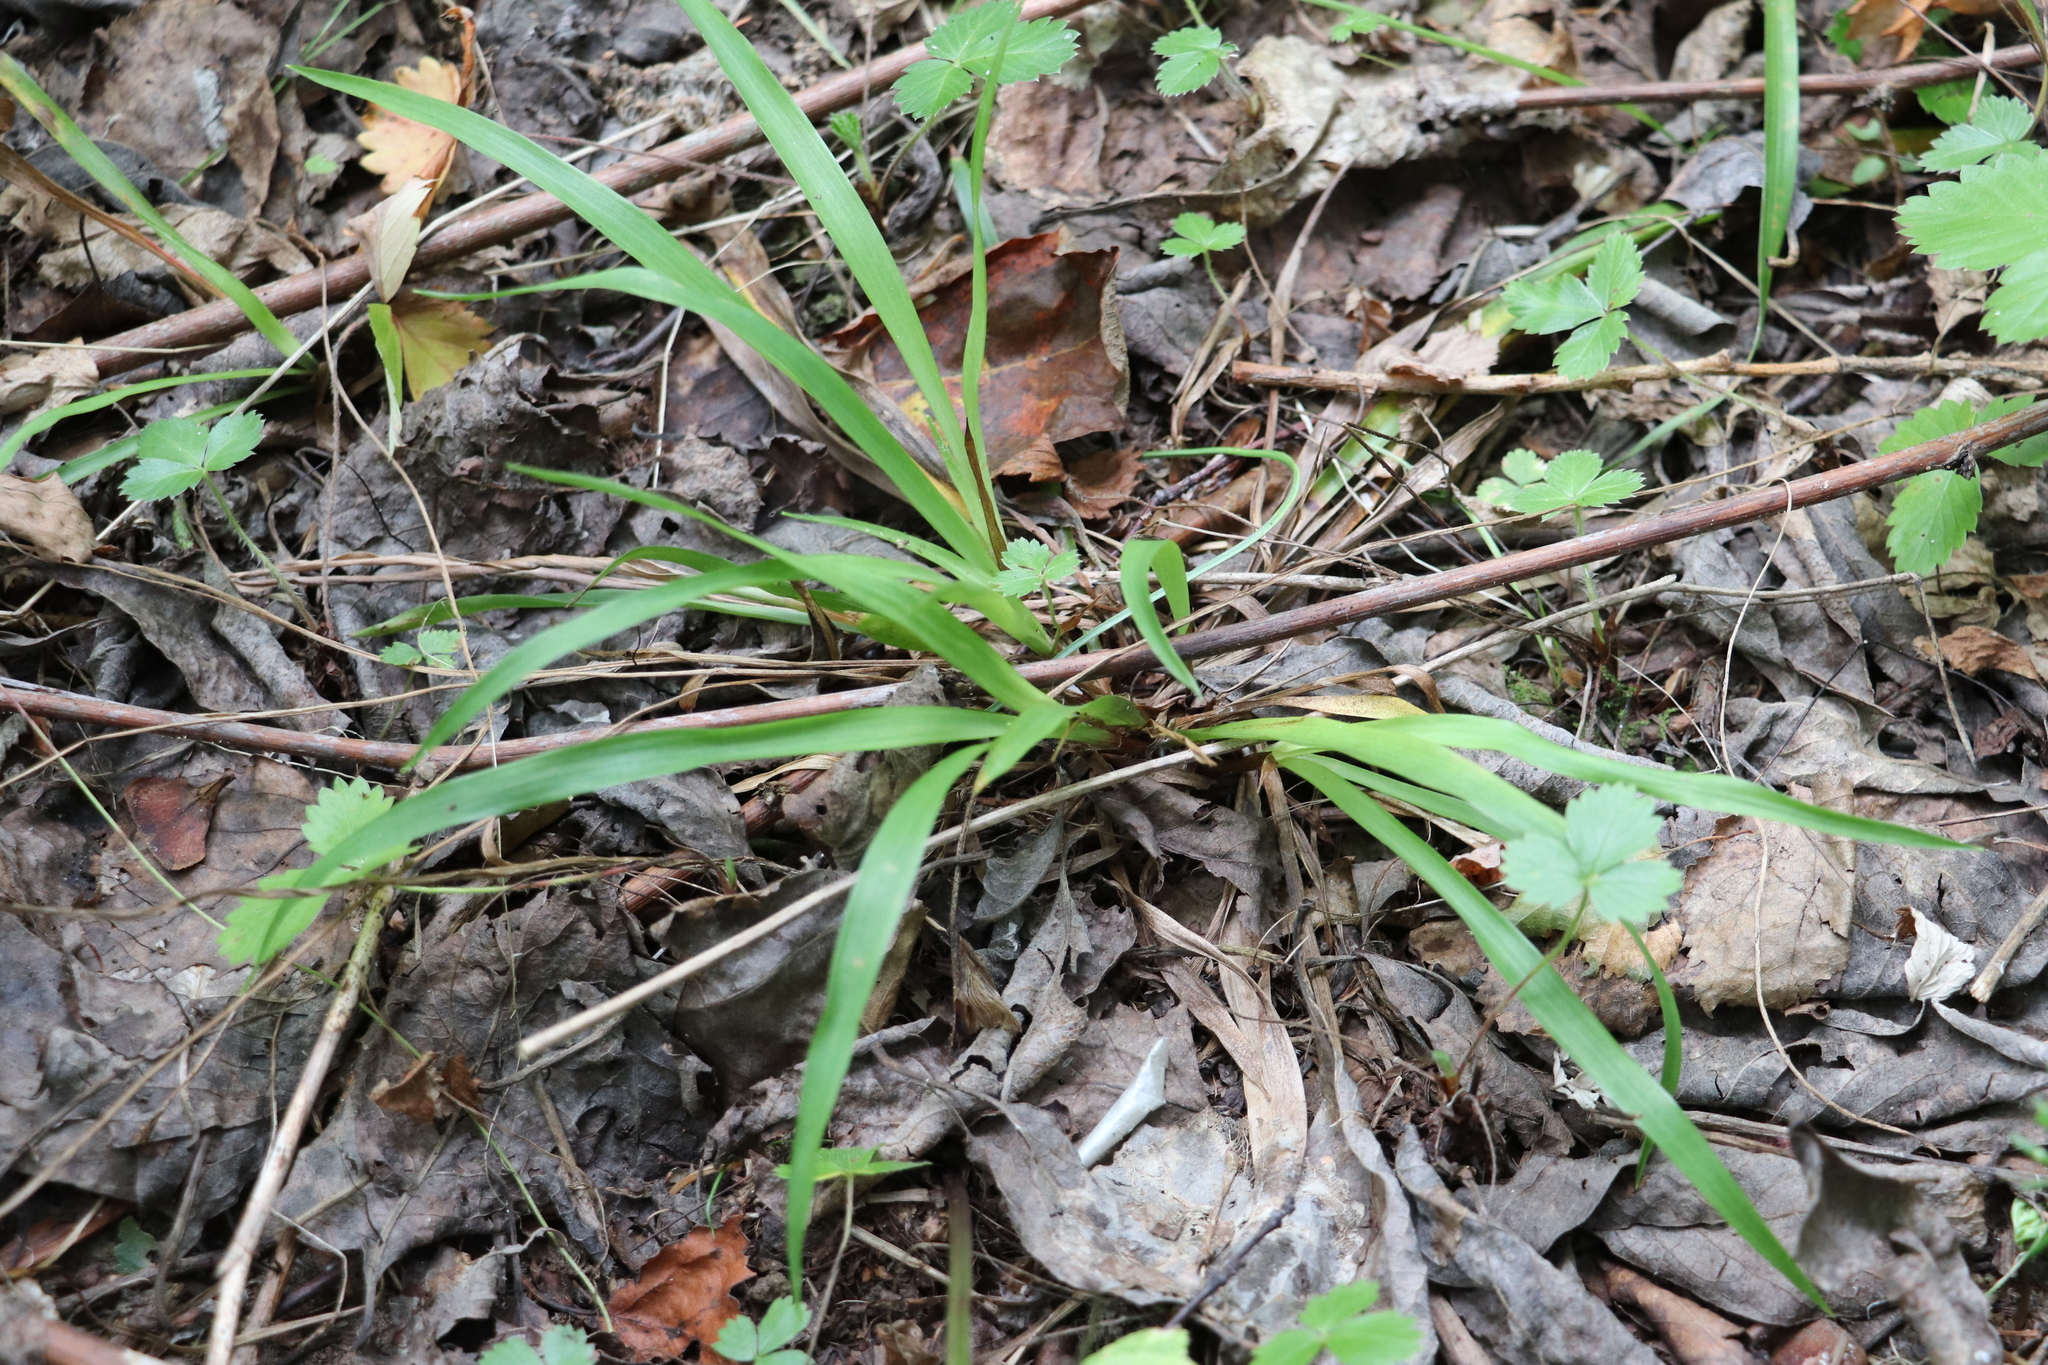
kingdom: Plantae
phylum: Tracheophyta
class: Liliopsida
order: Poales
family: Juncaceae
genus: Luzula
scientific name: Luzula pilosa
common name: Hairy wood-rush
